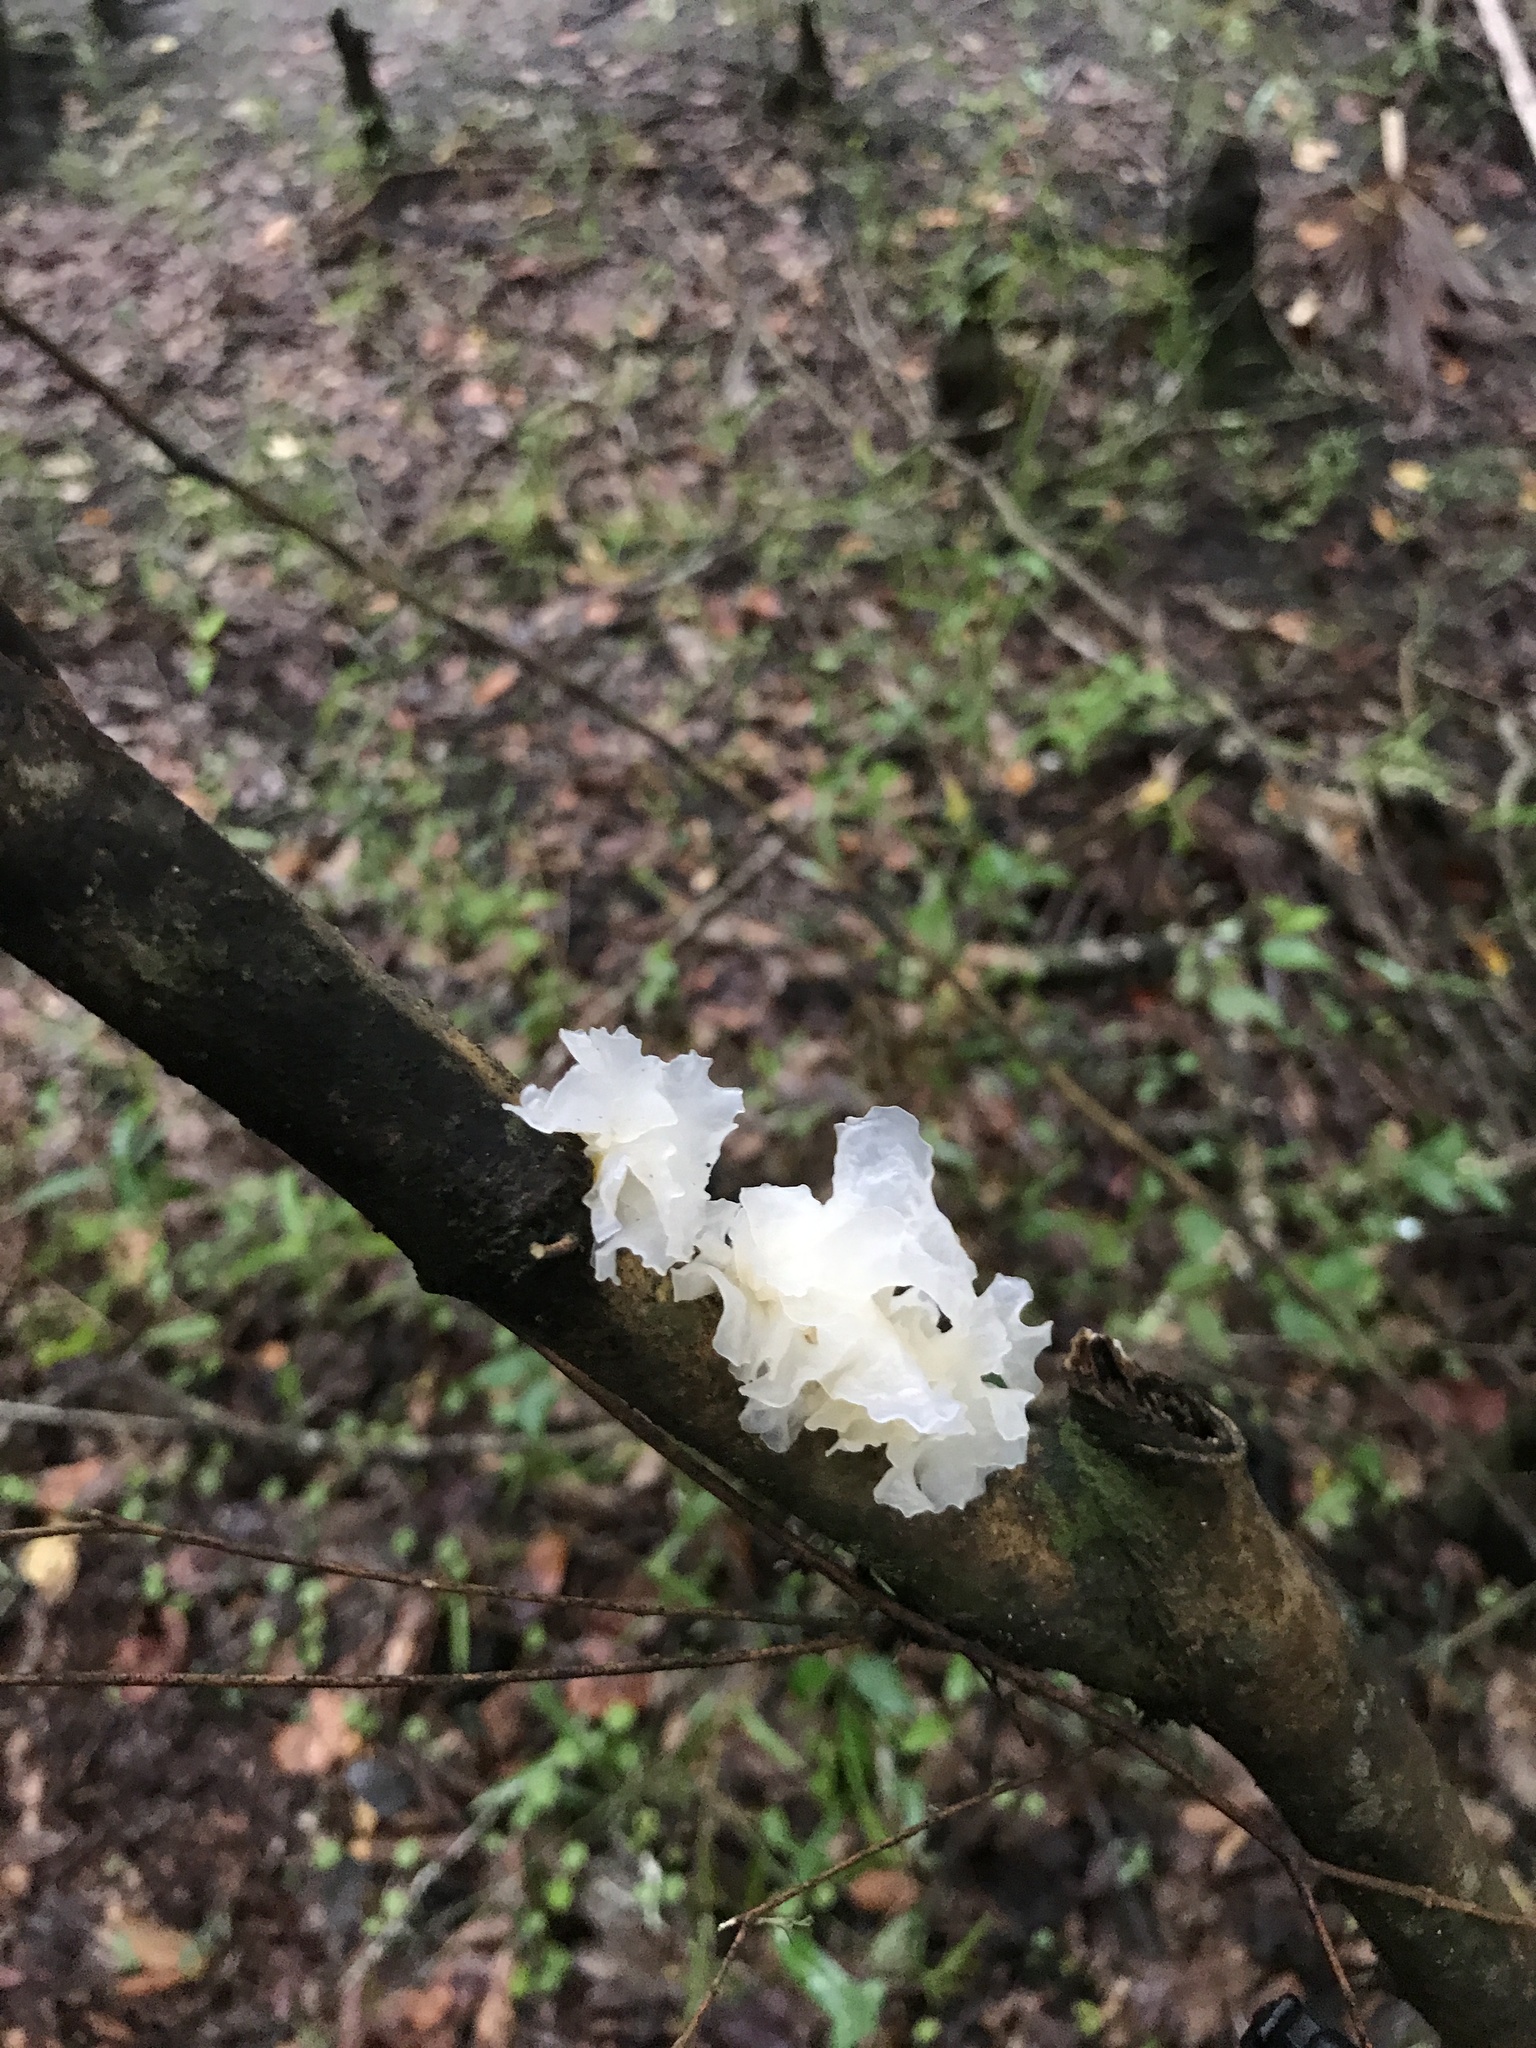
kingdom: Fungi
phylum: Basidiomycota
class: Tremellomycetes
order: Tremellales
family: Tremellaceae
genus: Tremella
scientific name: Tremella fuciformis
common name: Snow fungus
